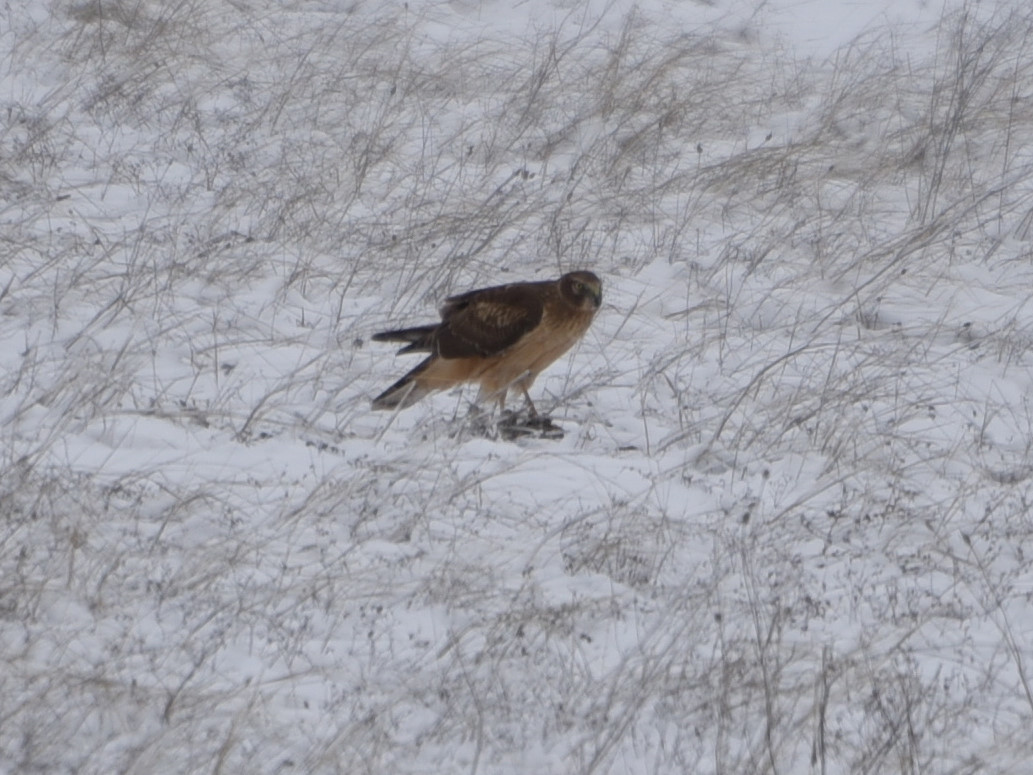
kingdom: Animalia
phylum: Chordata
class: Aves
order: Accipitriformes
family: Accipitridae
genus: Circus
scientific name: Circus cyaneus
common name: Hen harrier
